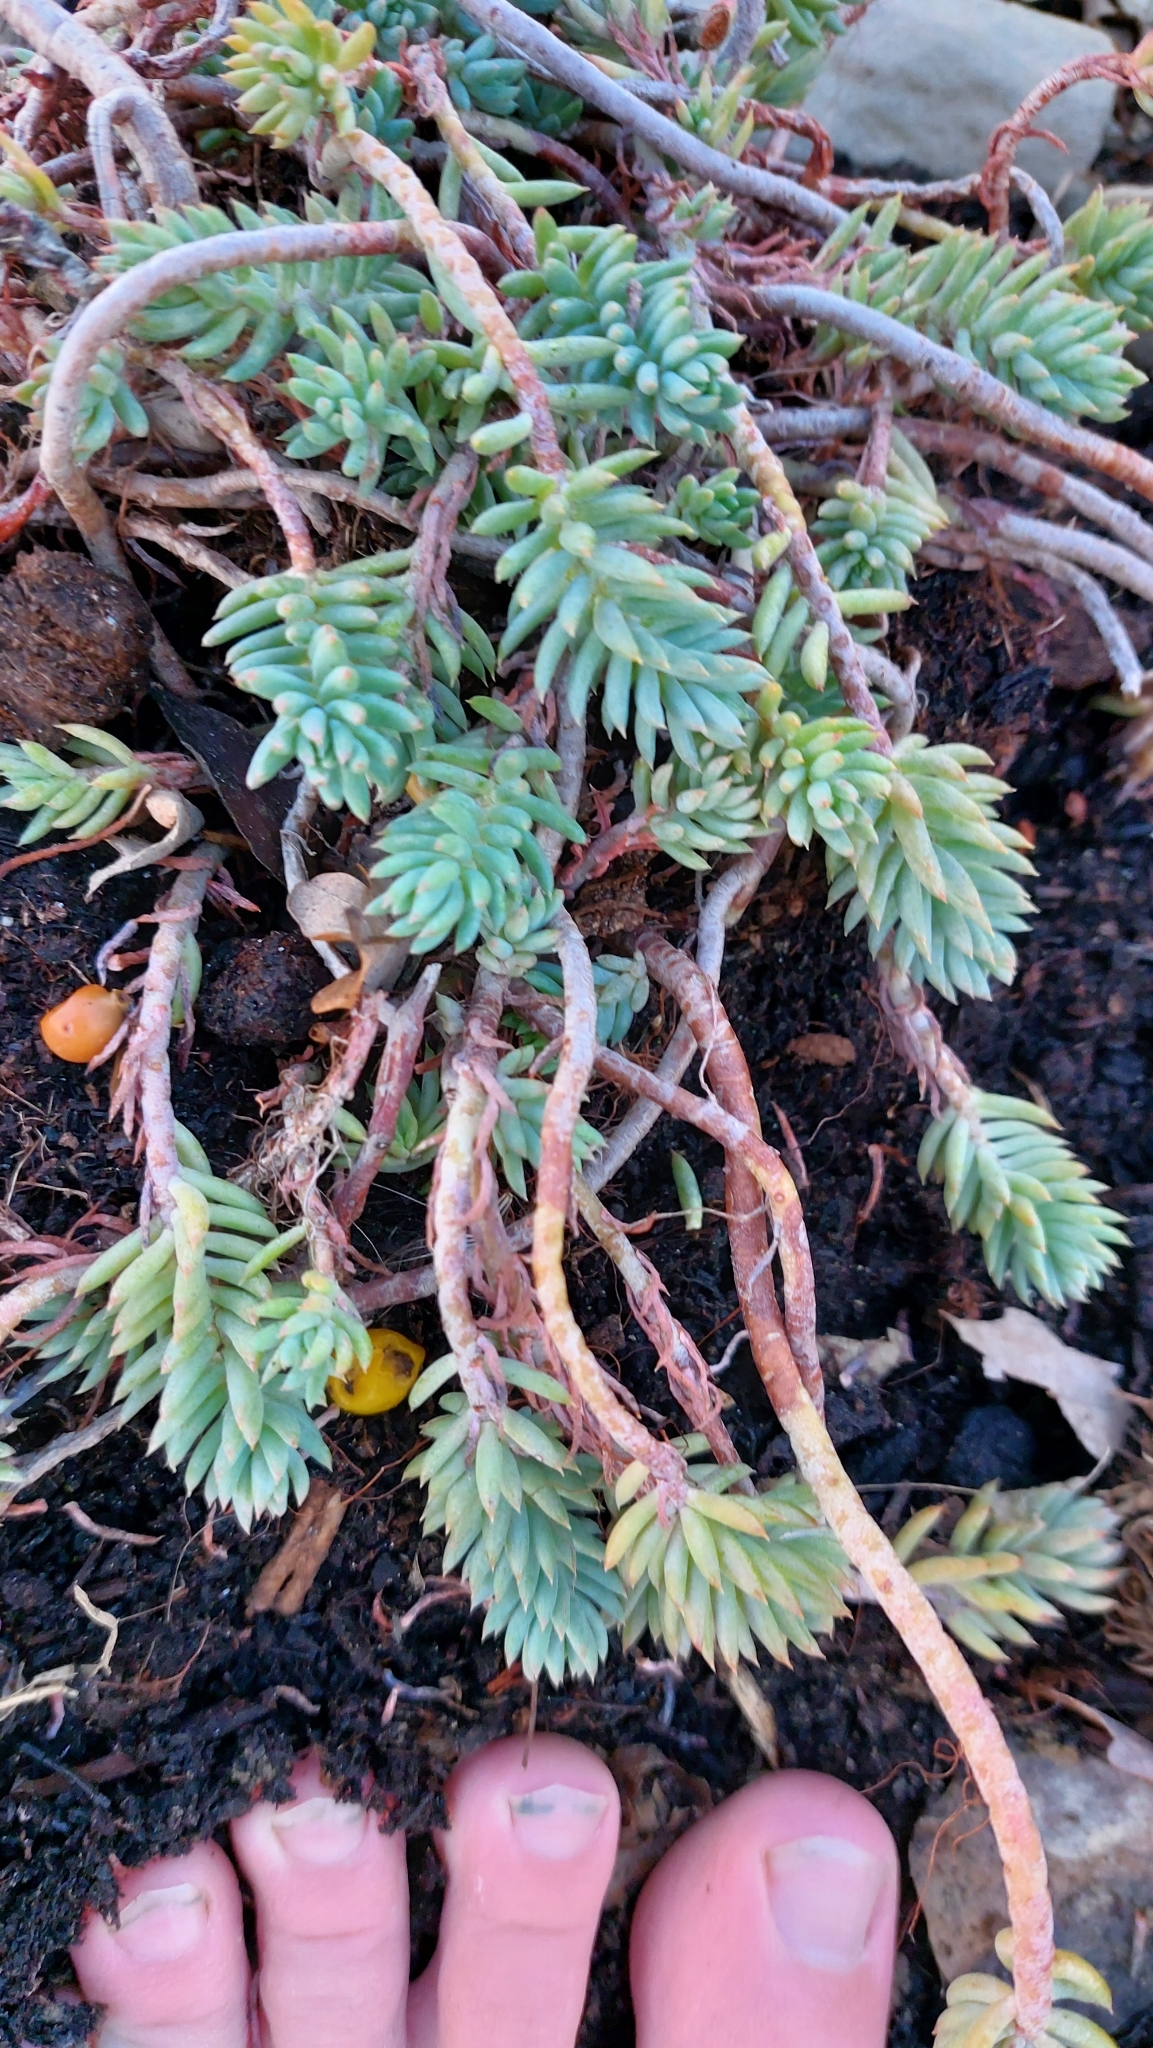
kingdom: Plantae
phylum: Tracheophyta
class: Magnoliopsida
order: Saxifragales
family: Crassulaceae
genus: Petrosedum
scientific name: Petrosedum
